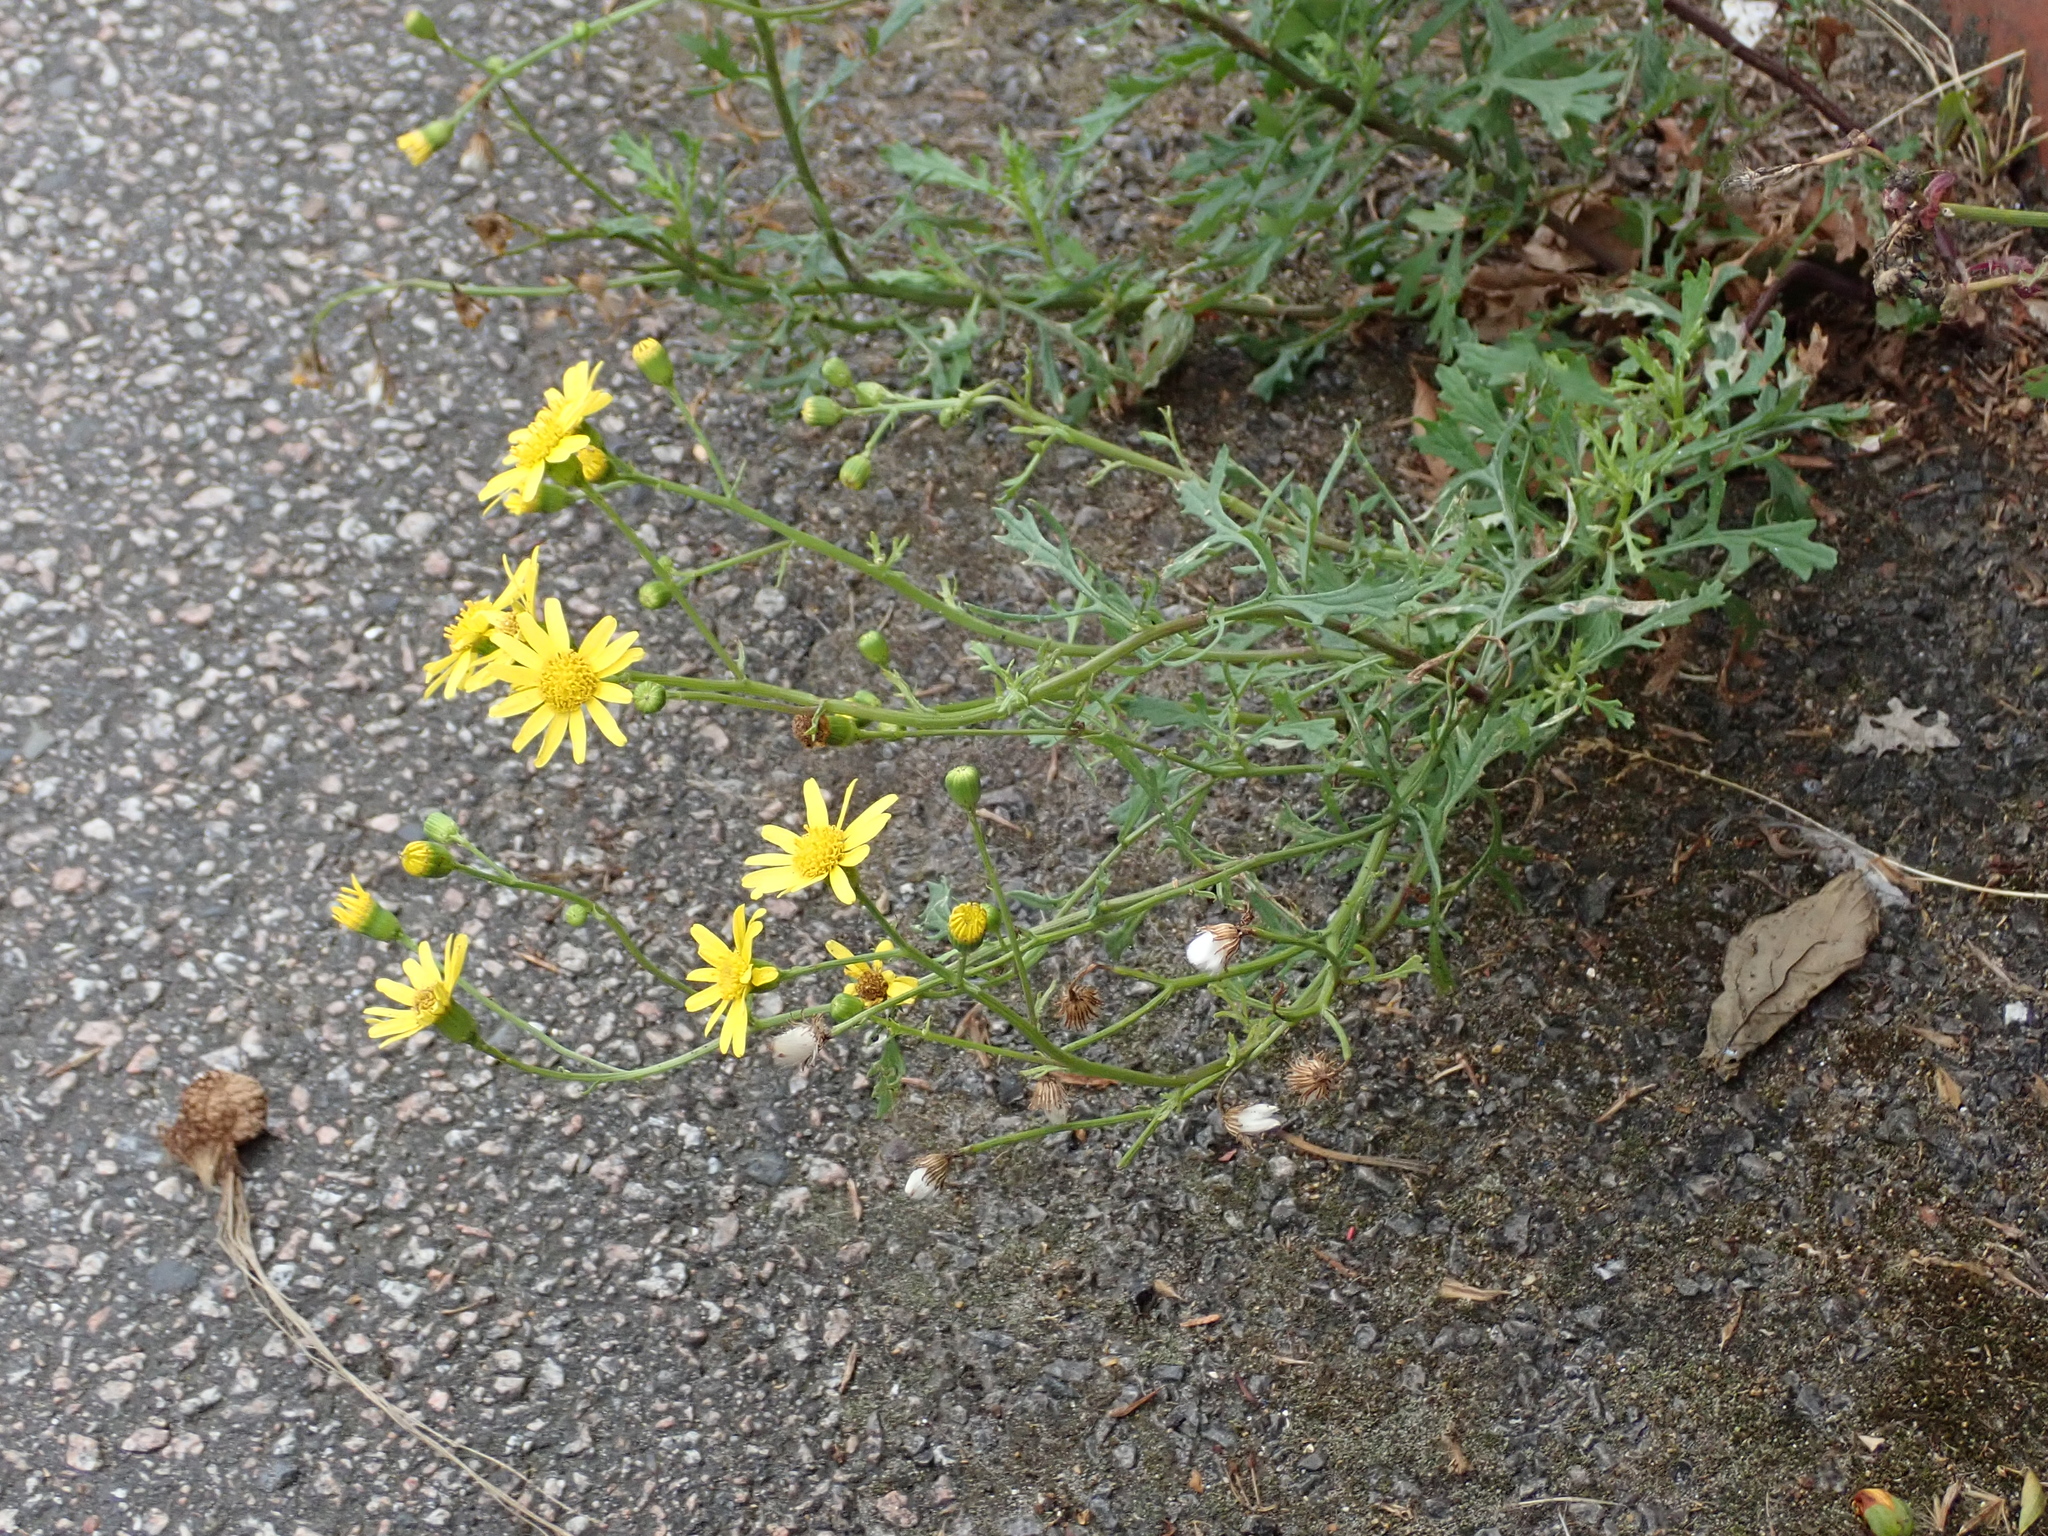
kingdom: Plantae
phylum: Tracheophyta
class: Magnoliopsida
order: Asterales
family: Asteraceae
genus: Senecio
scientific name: Senecio squalidus
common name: Oxford ragwort
